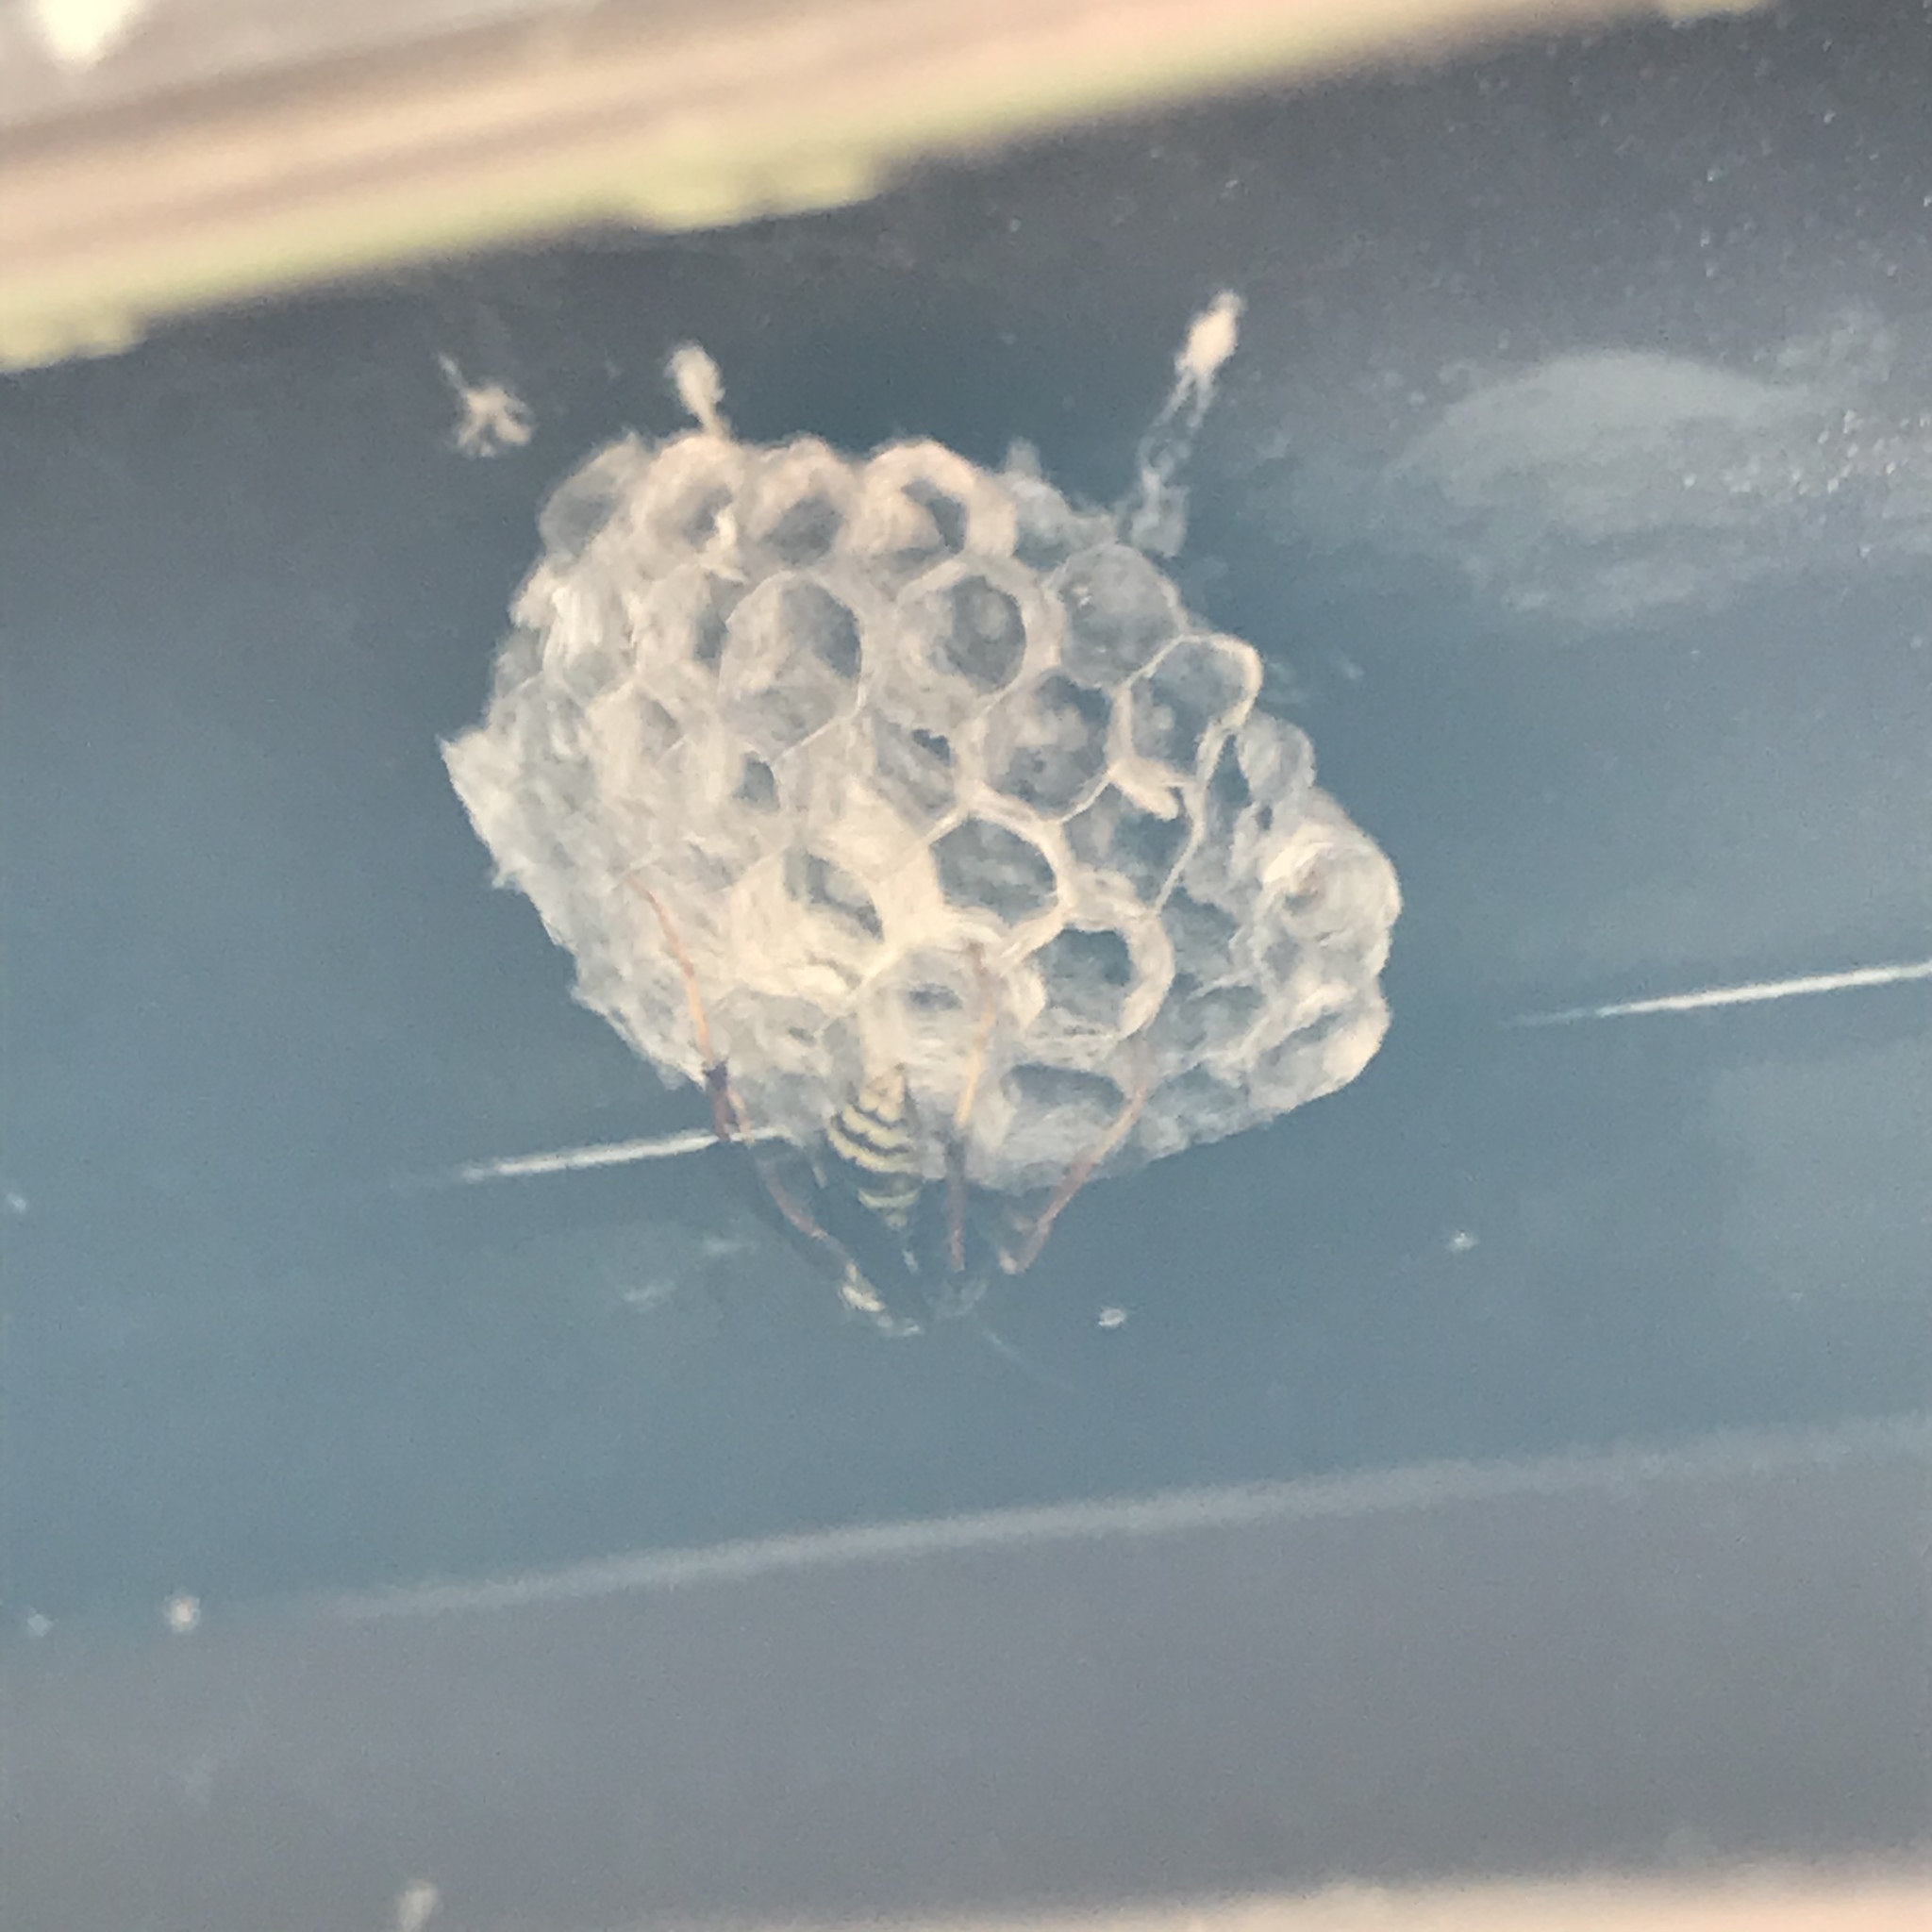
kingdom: Animalia
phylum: Arthropoda
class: Insecta
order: Hymenoptera
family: Eumenidae
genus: Polistes
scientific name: Polistes fuscatus
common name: Dark paper wasp
